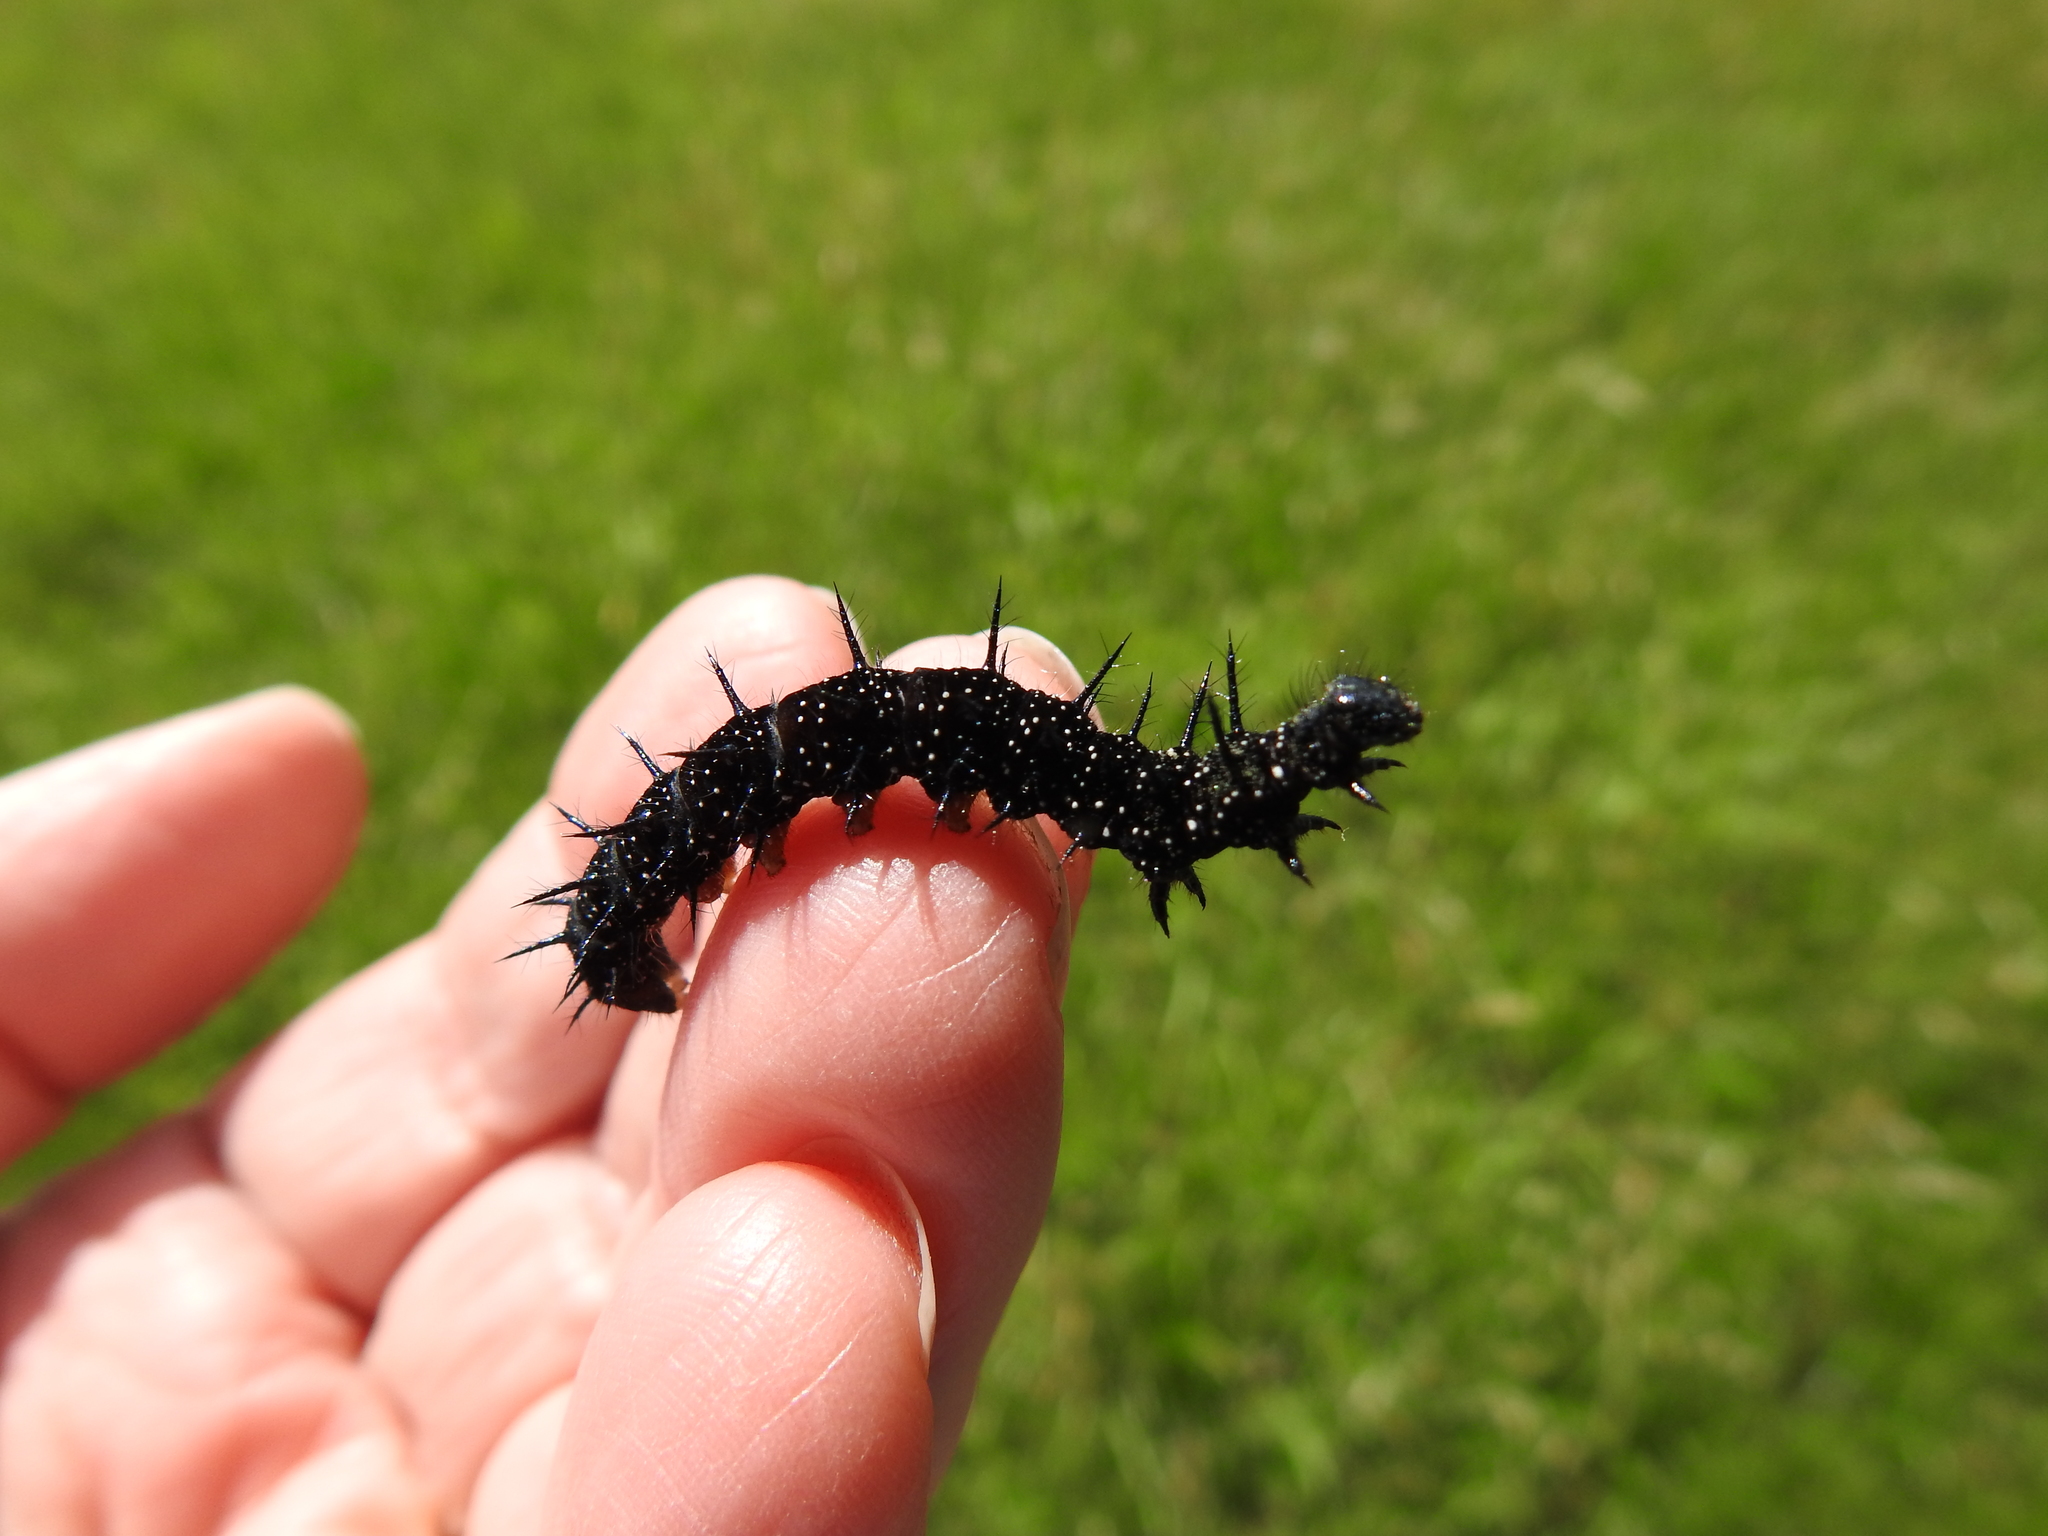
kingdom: Animalia
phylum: Arthropoda
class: Insecta
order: Lepidoptera
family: Nymphalidae
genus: Aglais
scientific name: Aglais io
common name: Peacock
